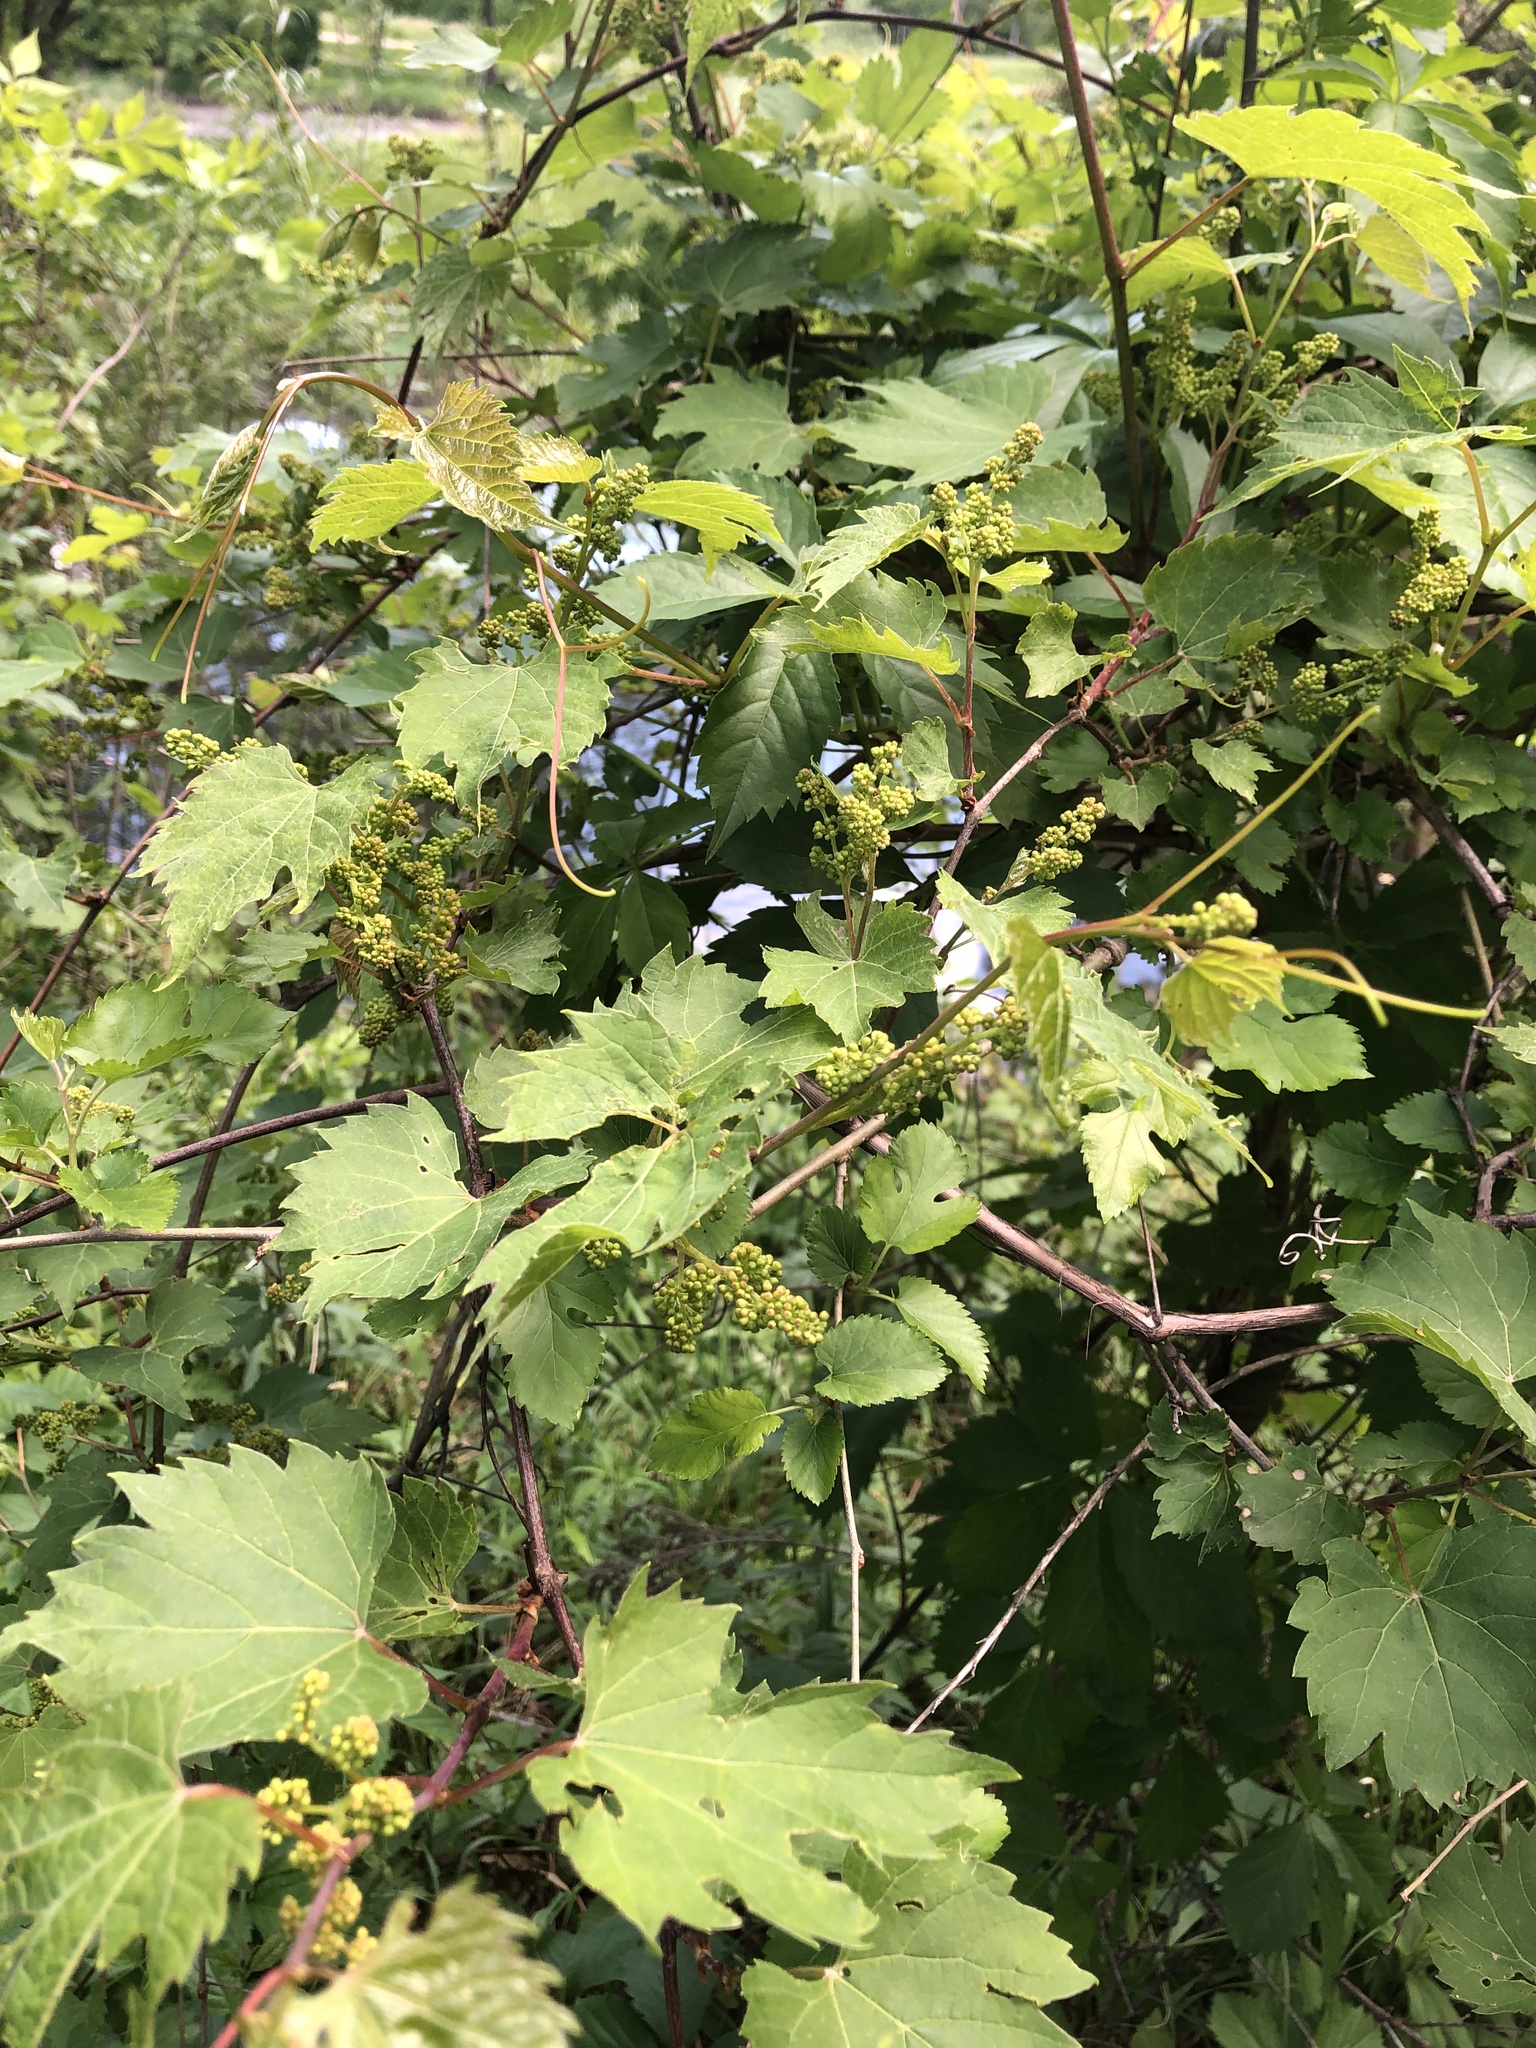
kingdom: Plantae
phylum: Tracheophyta
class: Magnoliopsida
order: Vitales
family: Vitaceae
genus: Vitis
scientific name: Vitis riparia
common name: Frost grape
